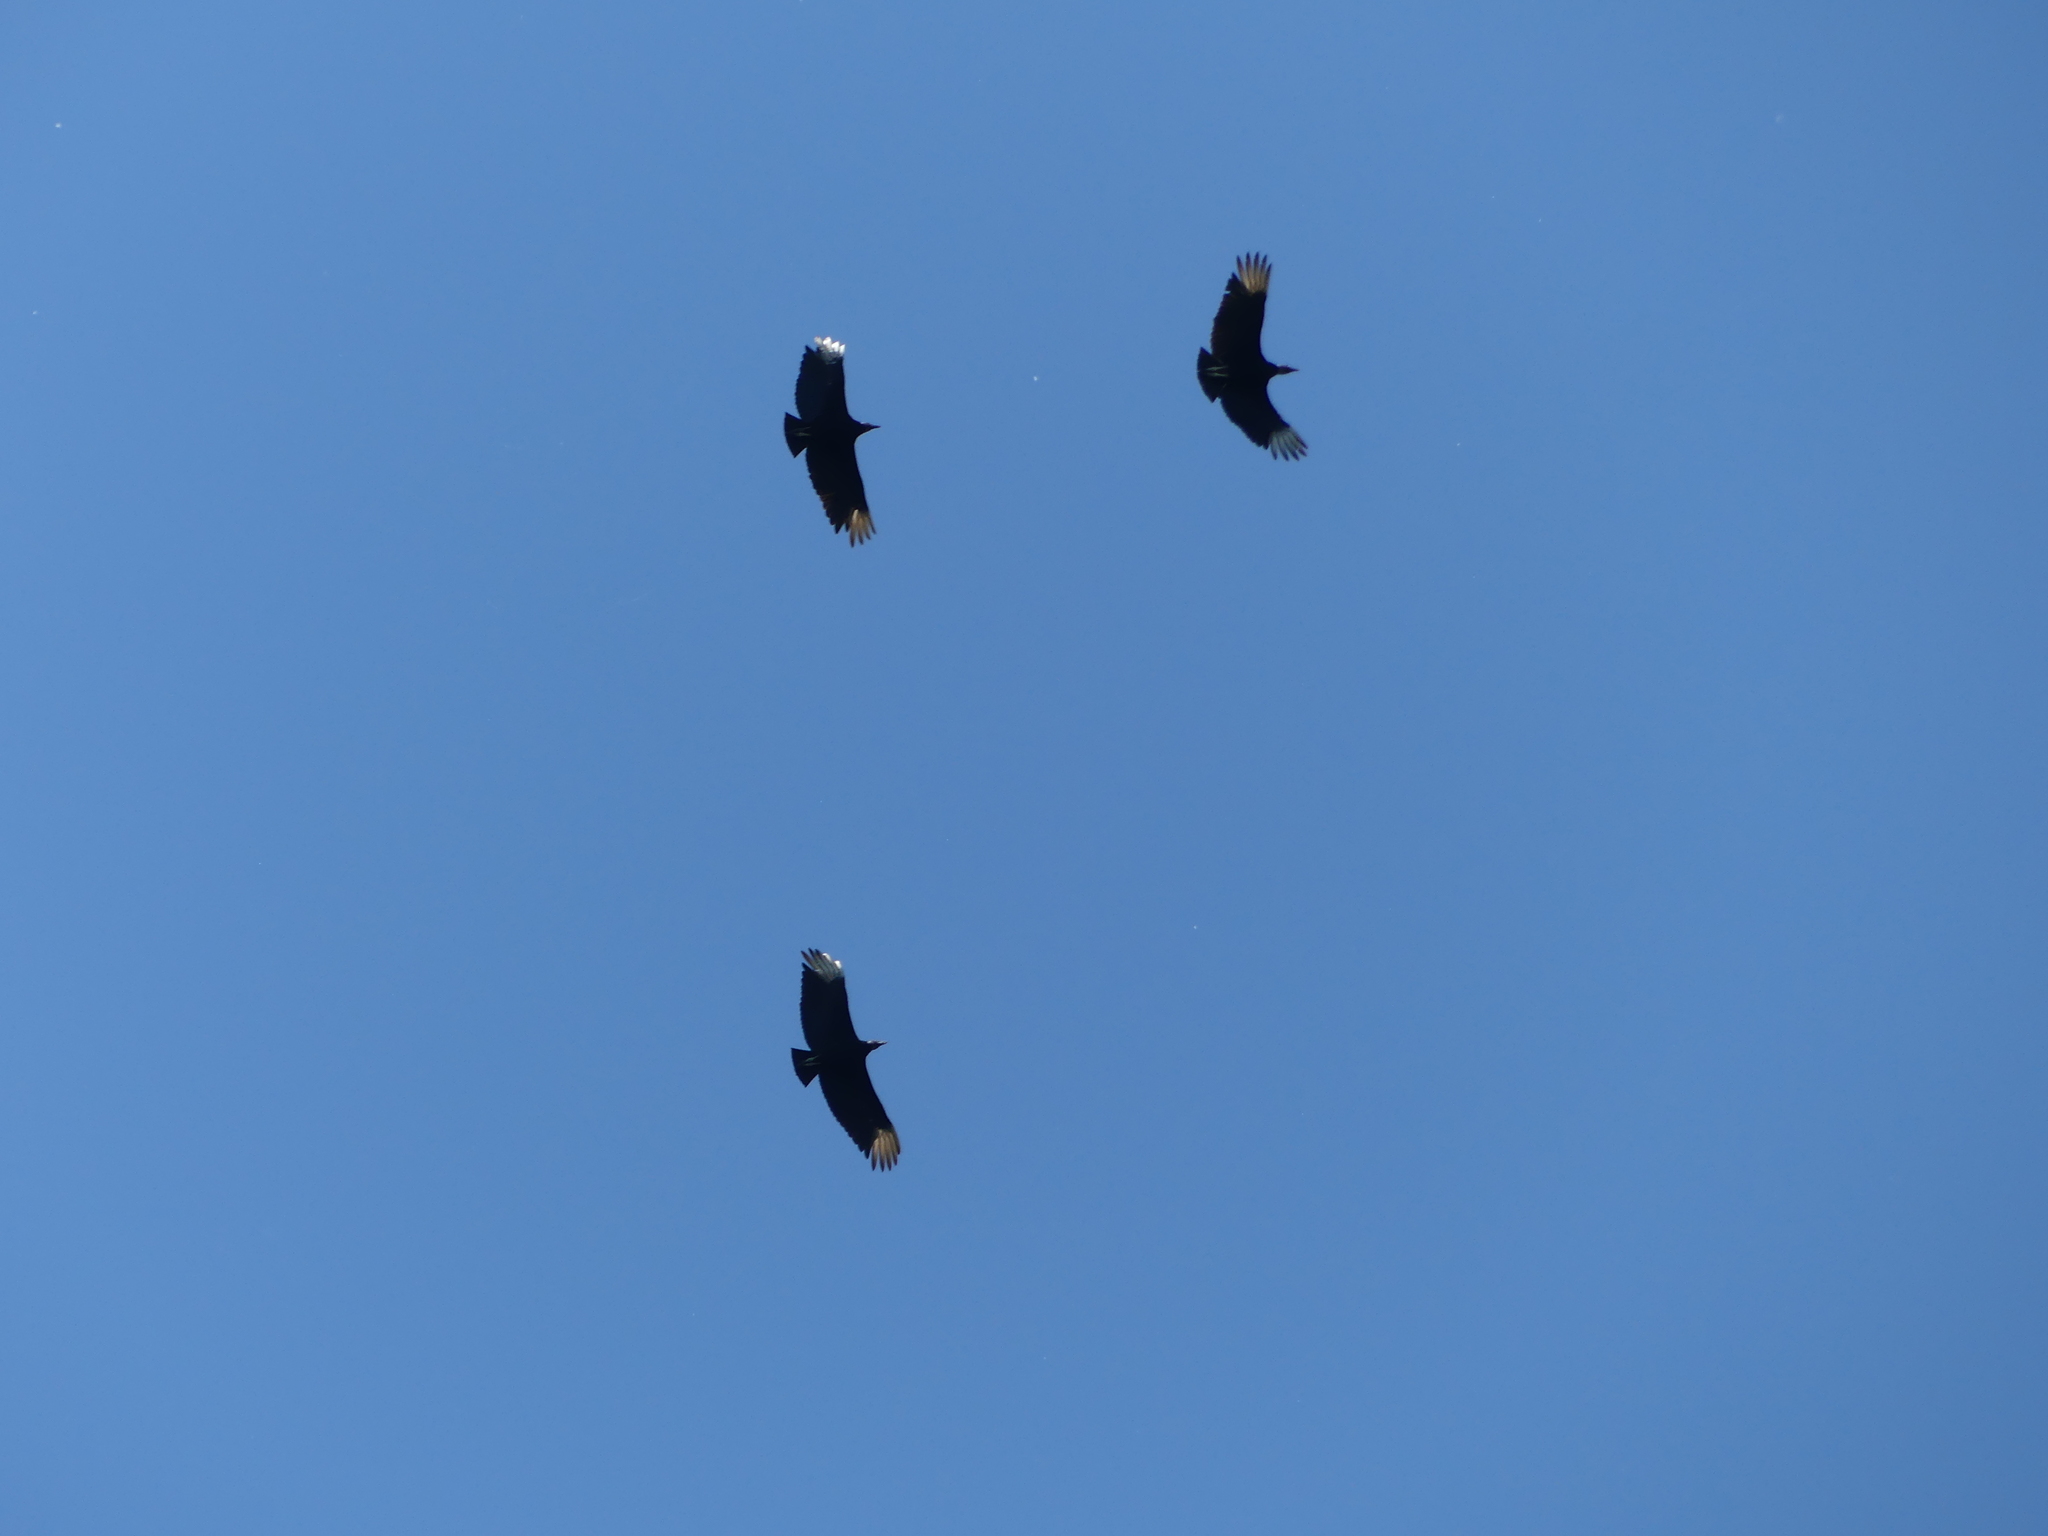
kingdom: Animalia
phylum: Chordata
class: Aves
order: Accipitriformes
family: Cathartidae
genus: Coragyps
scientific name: Coragyps atratus
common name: Black vulture
